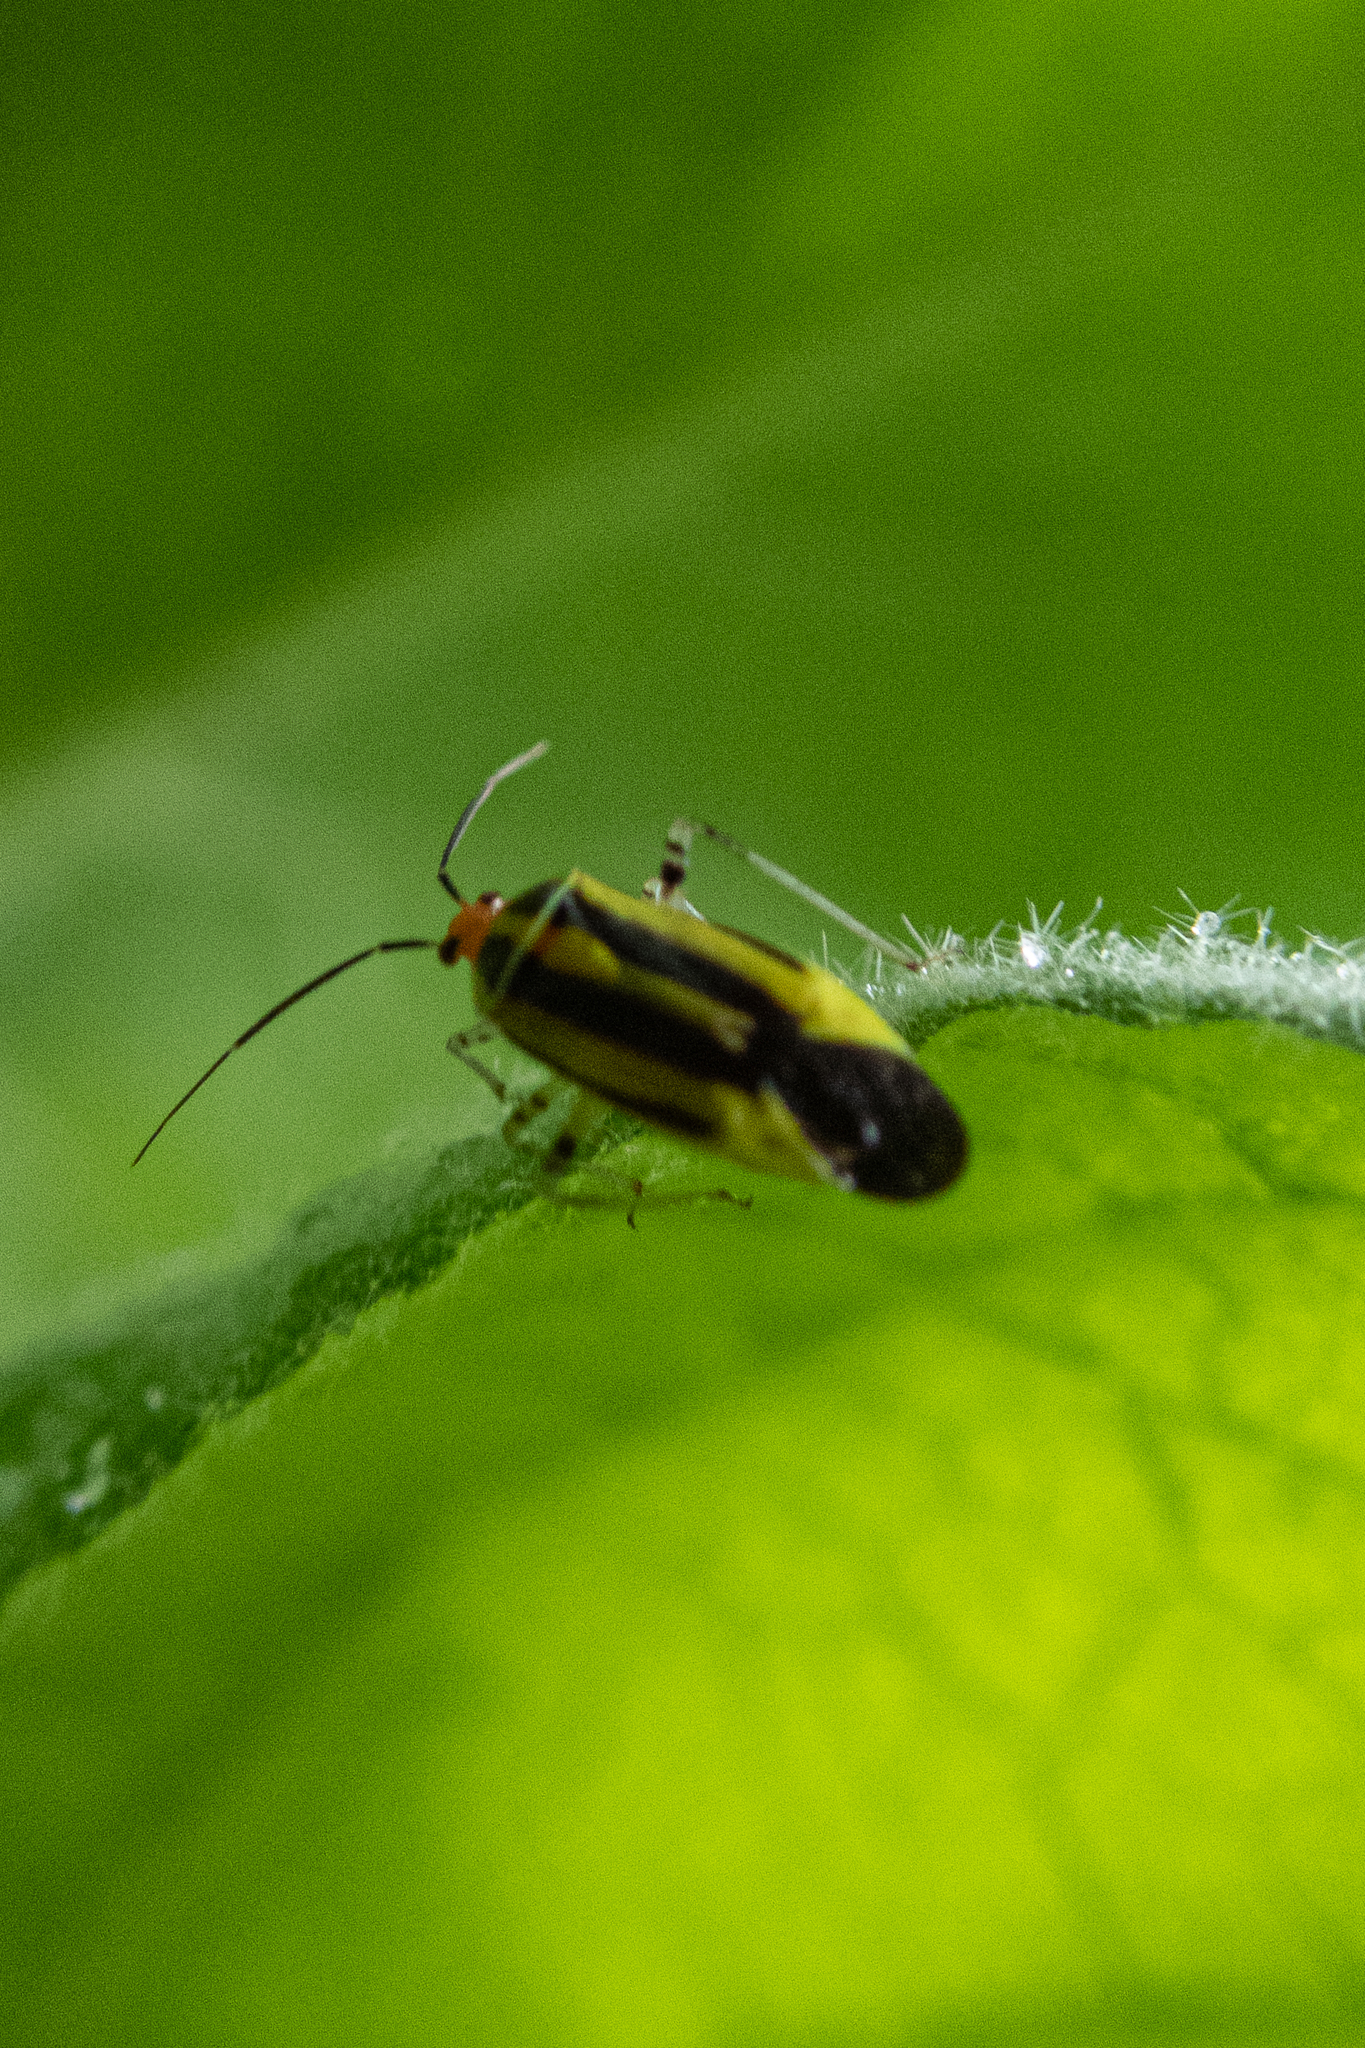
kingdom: Animalia
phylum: Arthropoda
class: Insecta
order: Hemiptera
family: Miridae
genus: Poecilocapsus
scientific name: Poecilocapsus lineatus
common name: Four-lined plant bug
